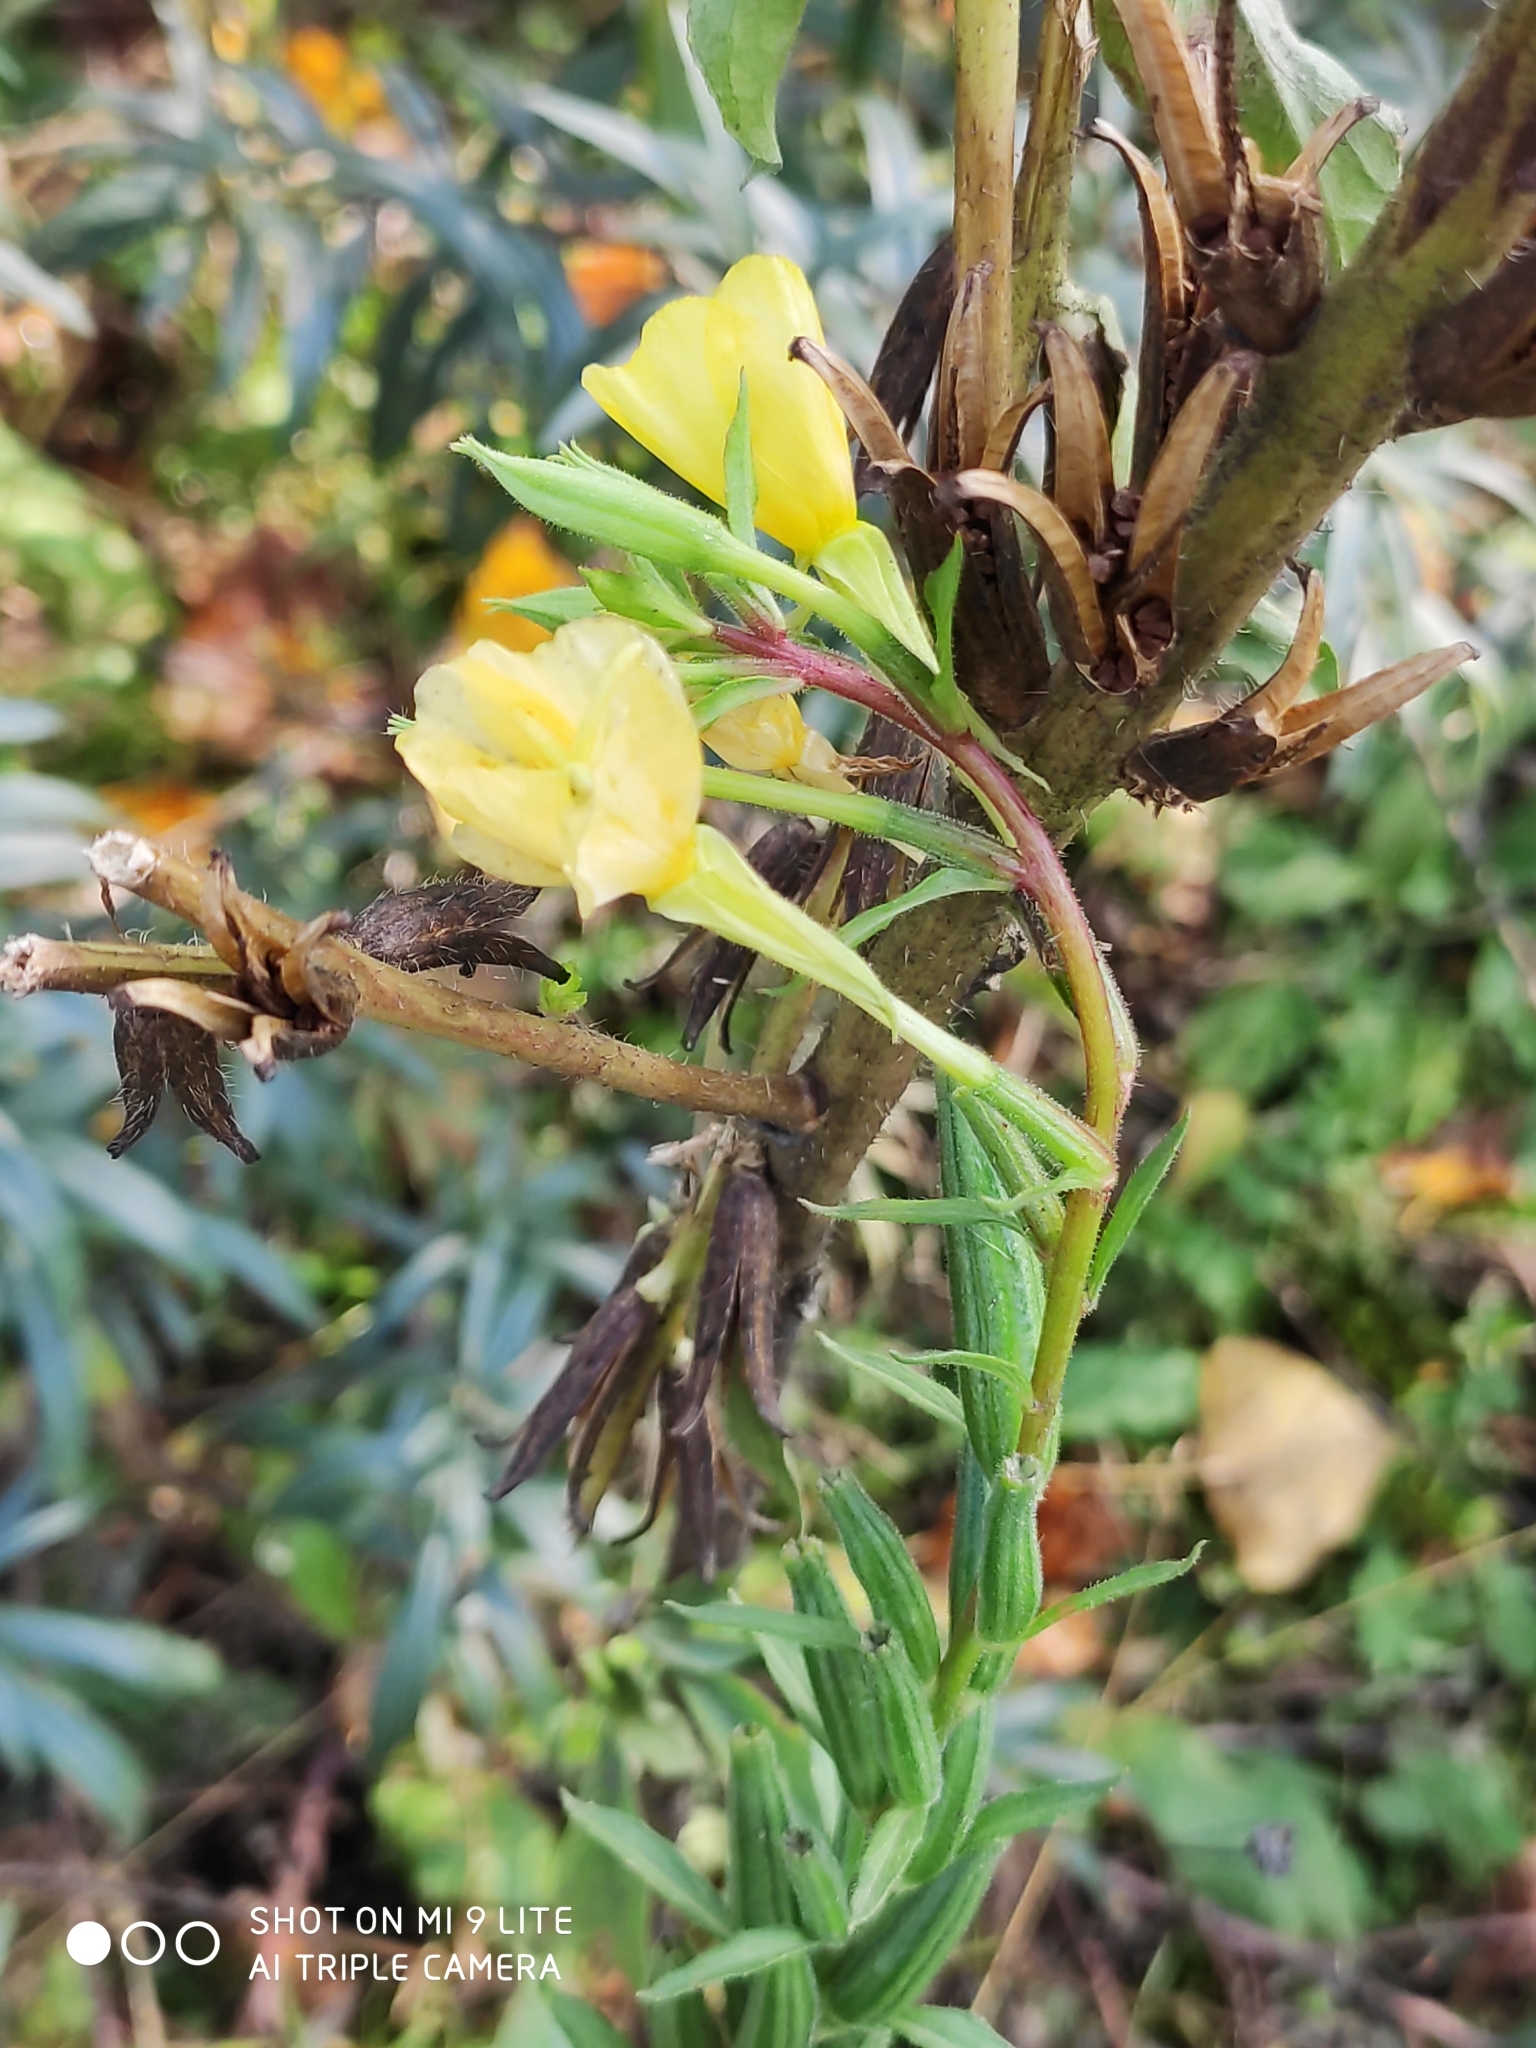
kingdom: Plantae
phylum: Tracheophyta
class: Magnoliopsida
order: Myrtales
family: Onagraceae
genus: Oenothera
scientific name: Oenothera rubricaulis
